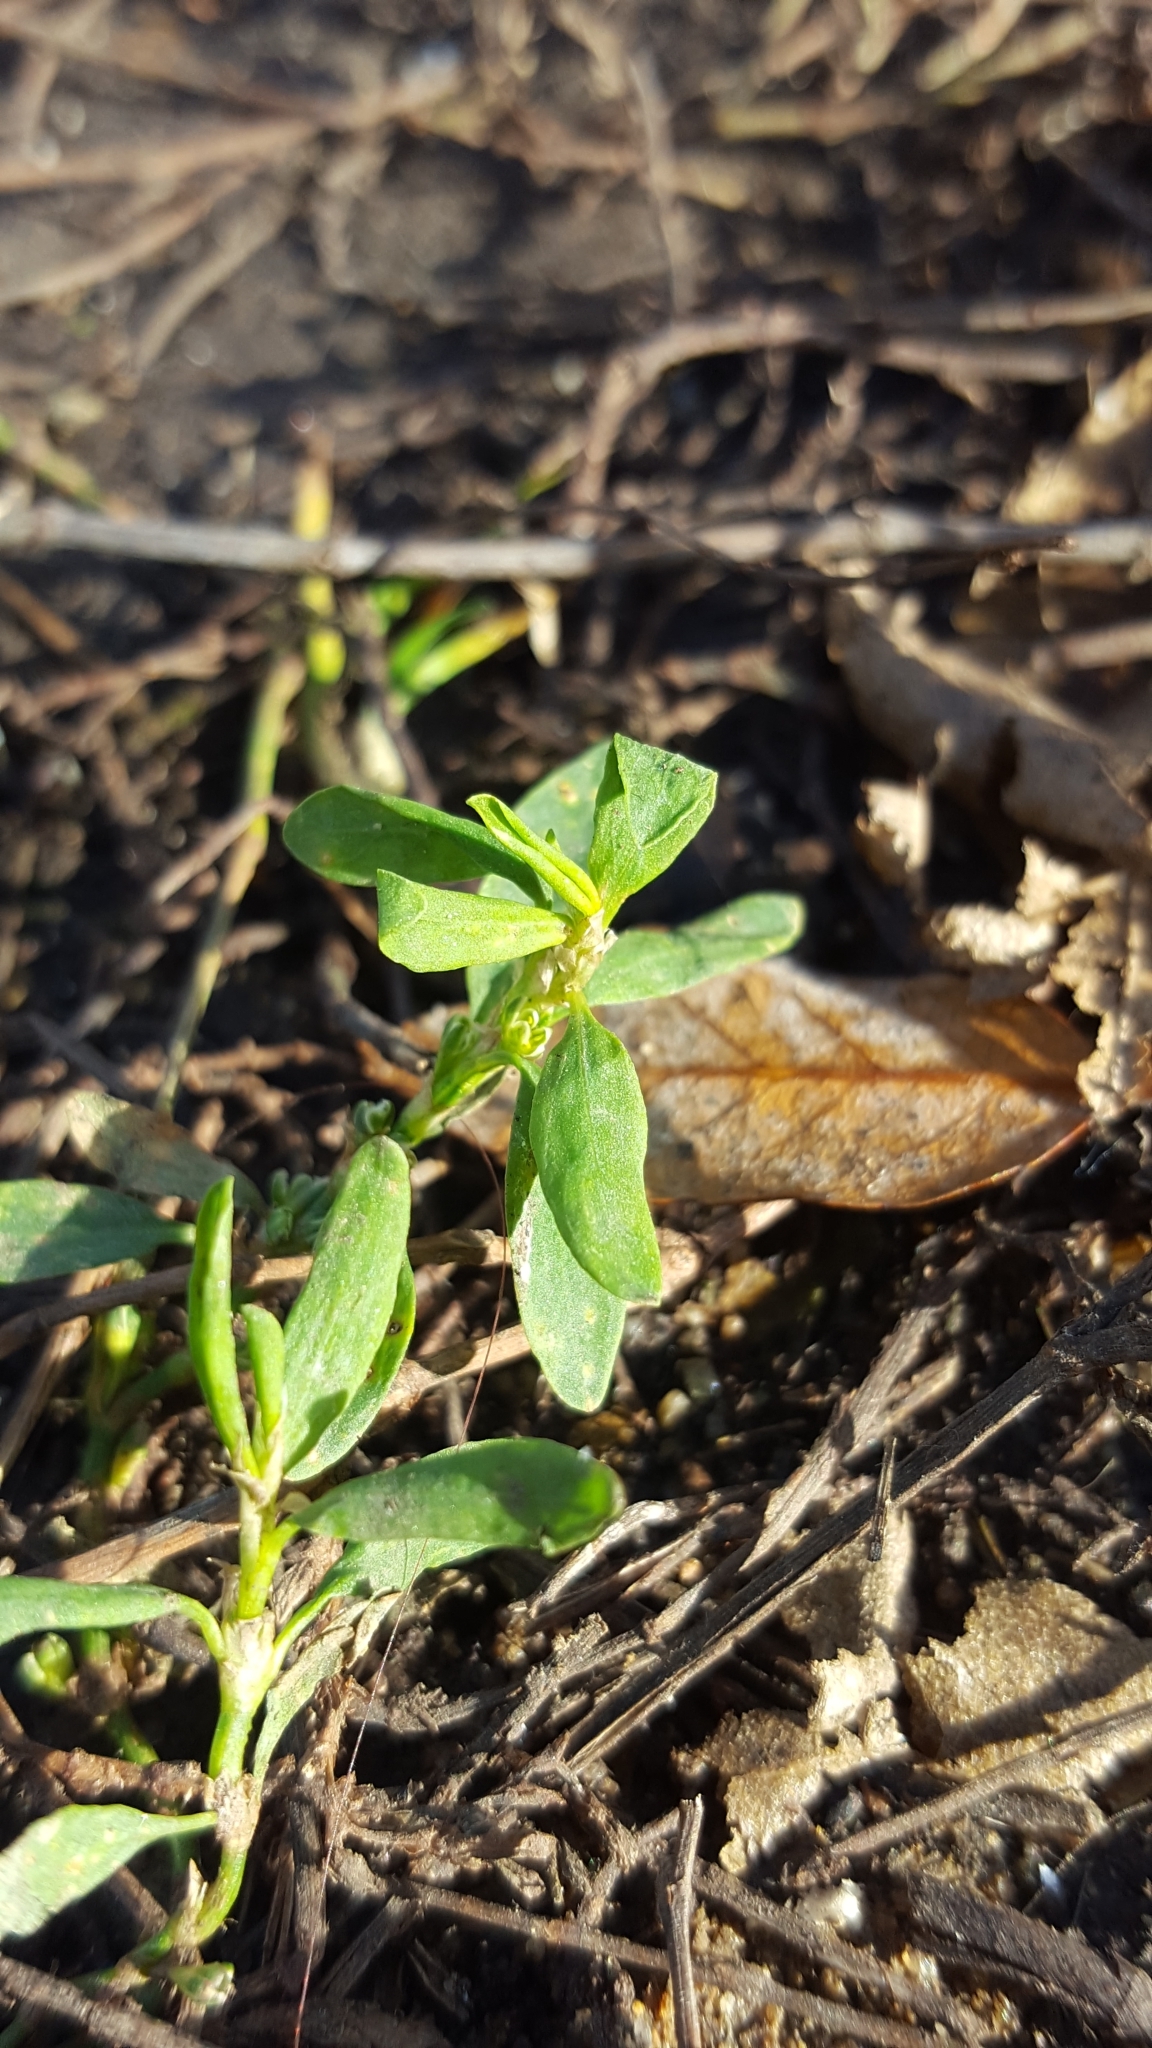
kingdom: Plantae
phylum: Tracheophyta
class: Magnoliopsida
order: Caryophyllales
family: Polygonaceae
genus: Polygonum
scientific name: Polygonum aviculare
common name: Prostrate knotweed
